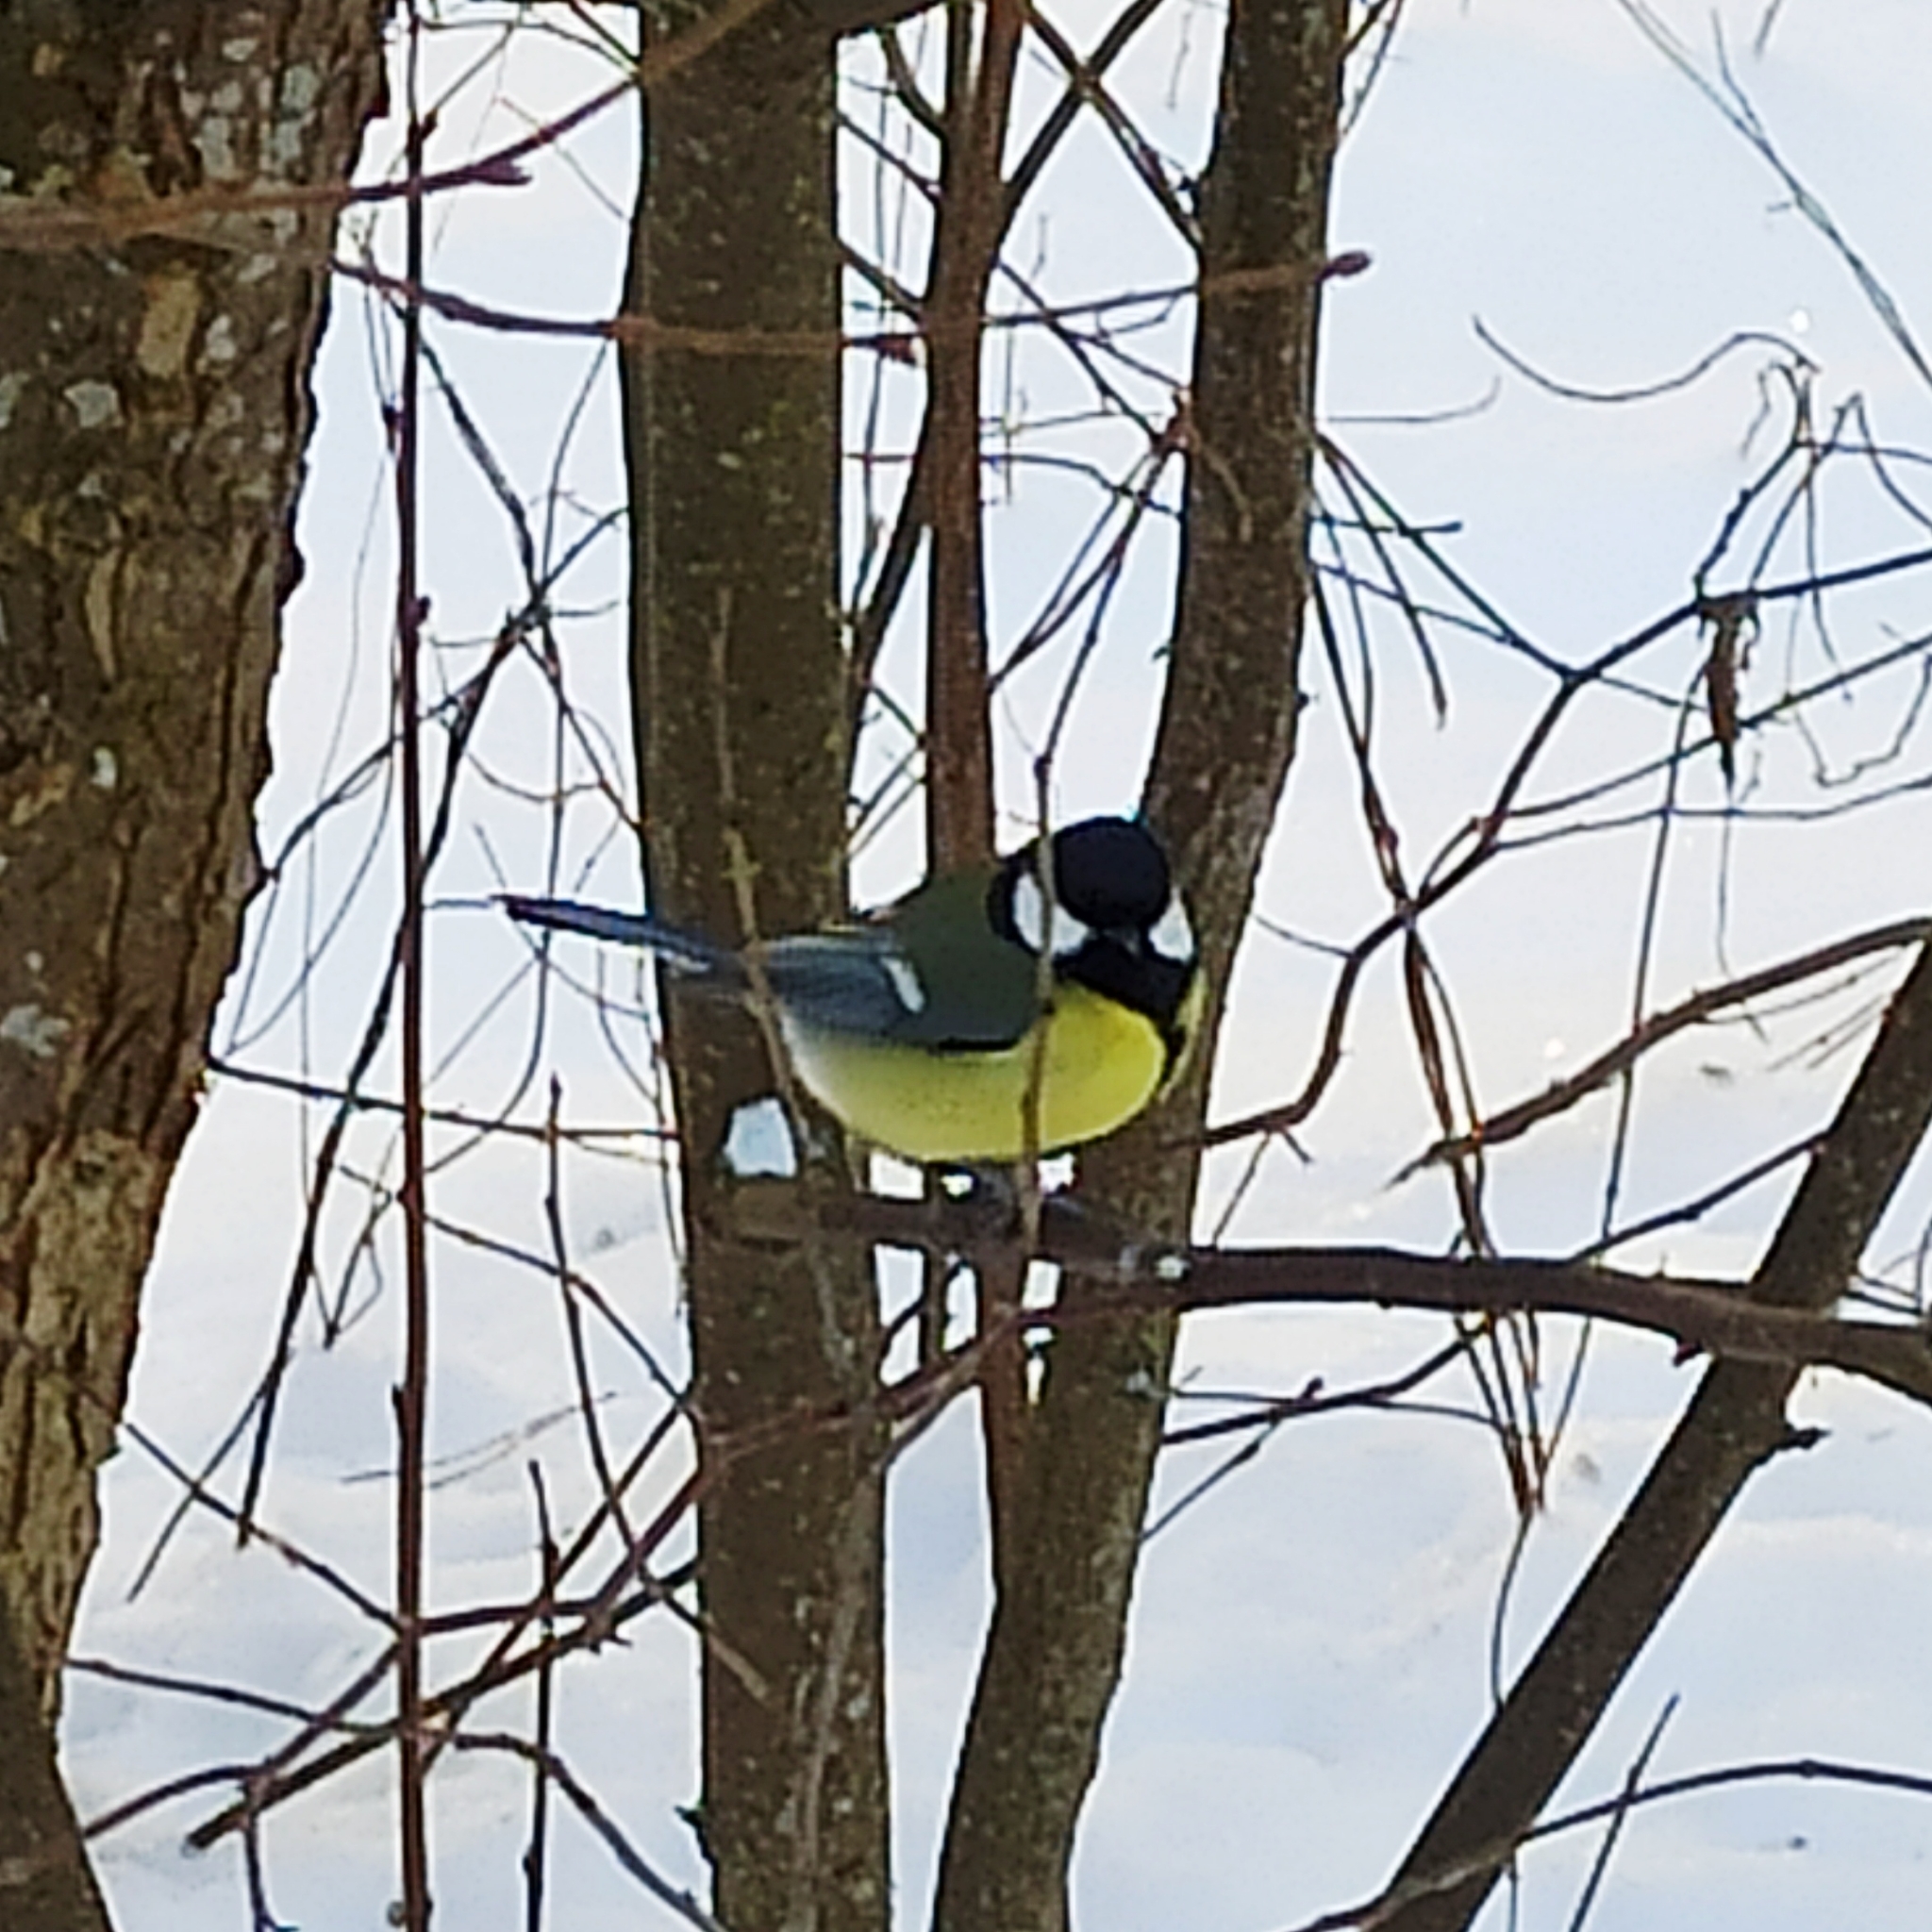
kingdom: Animalia
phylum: Chordata
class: Aves
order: Passeriformes
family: Paridae
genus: Parus
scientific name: Parus major
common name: Great tit
